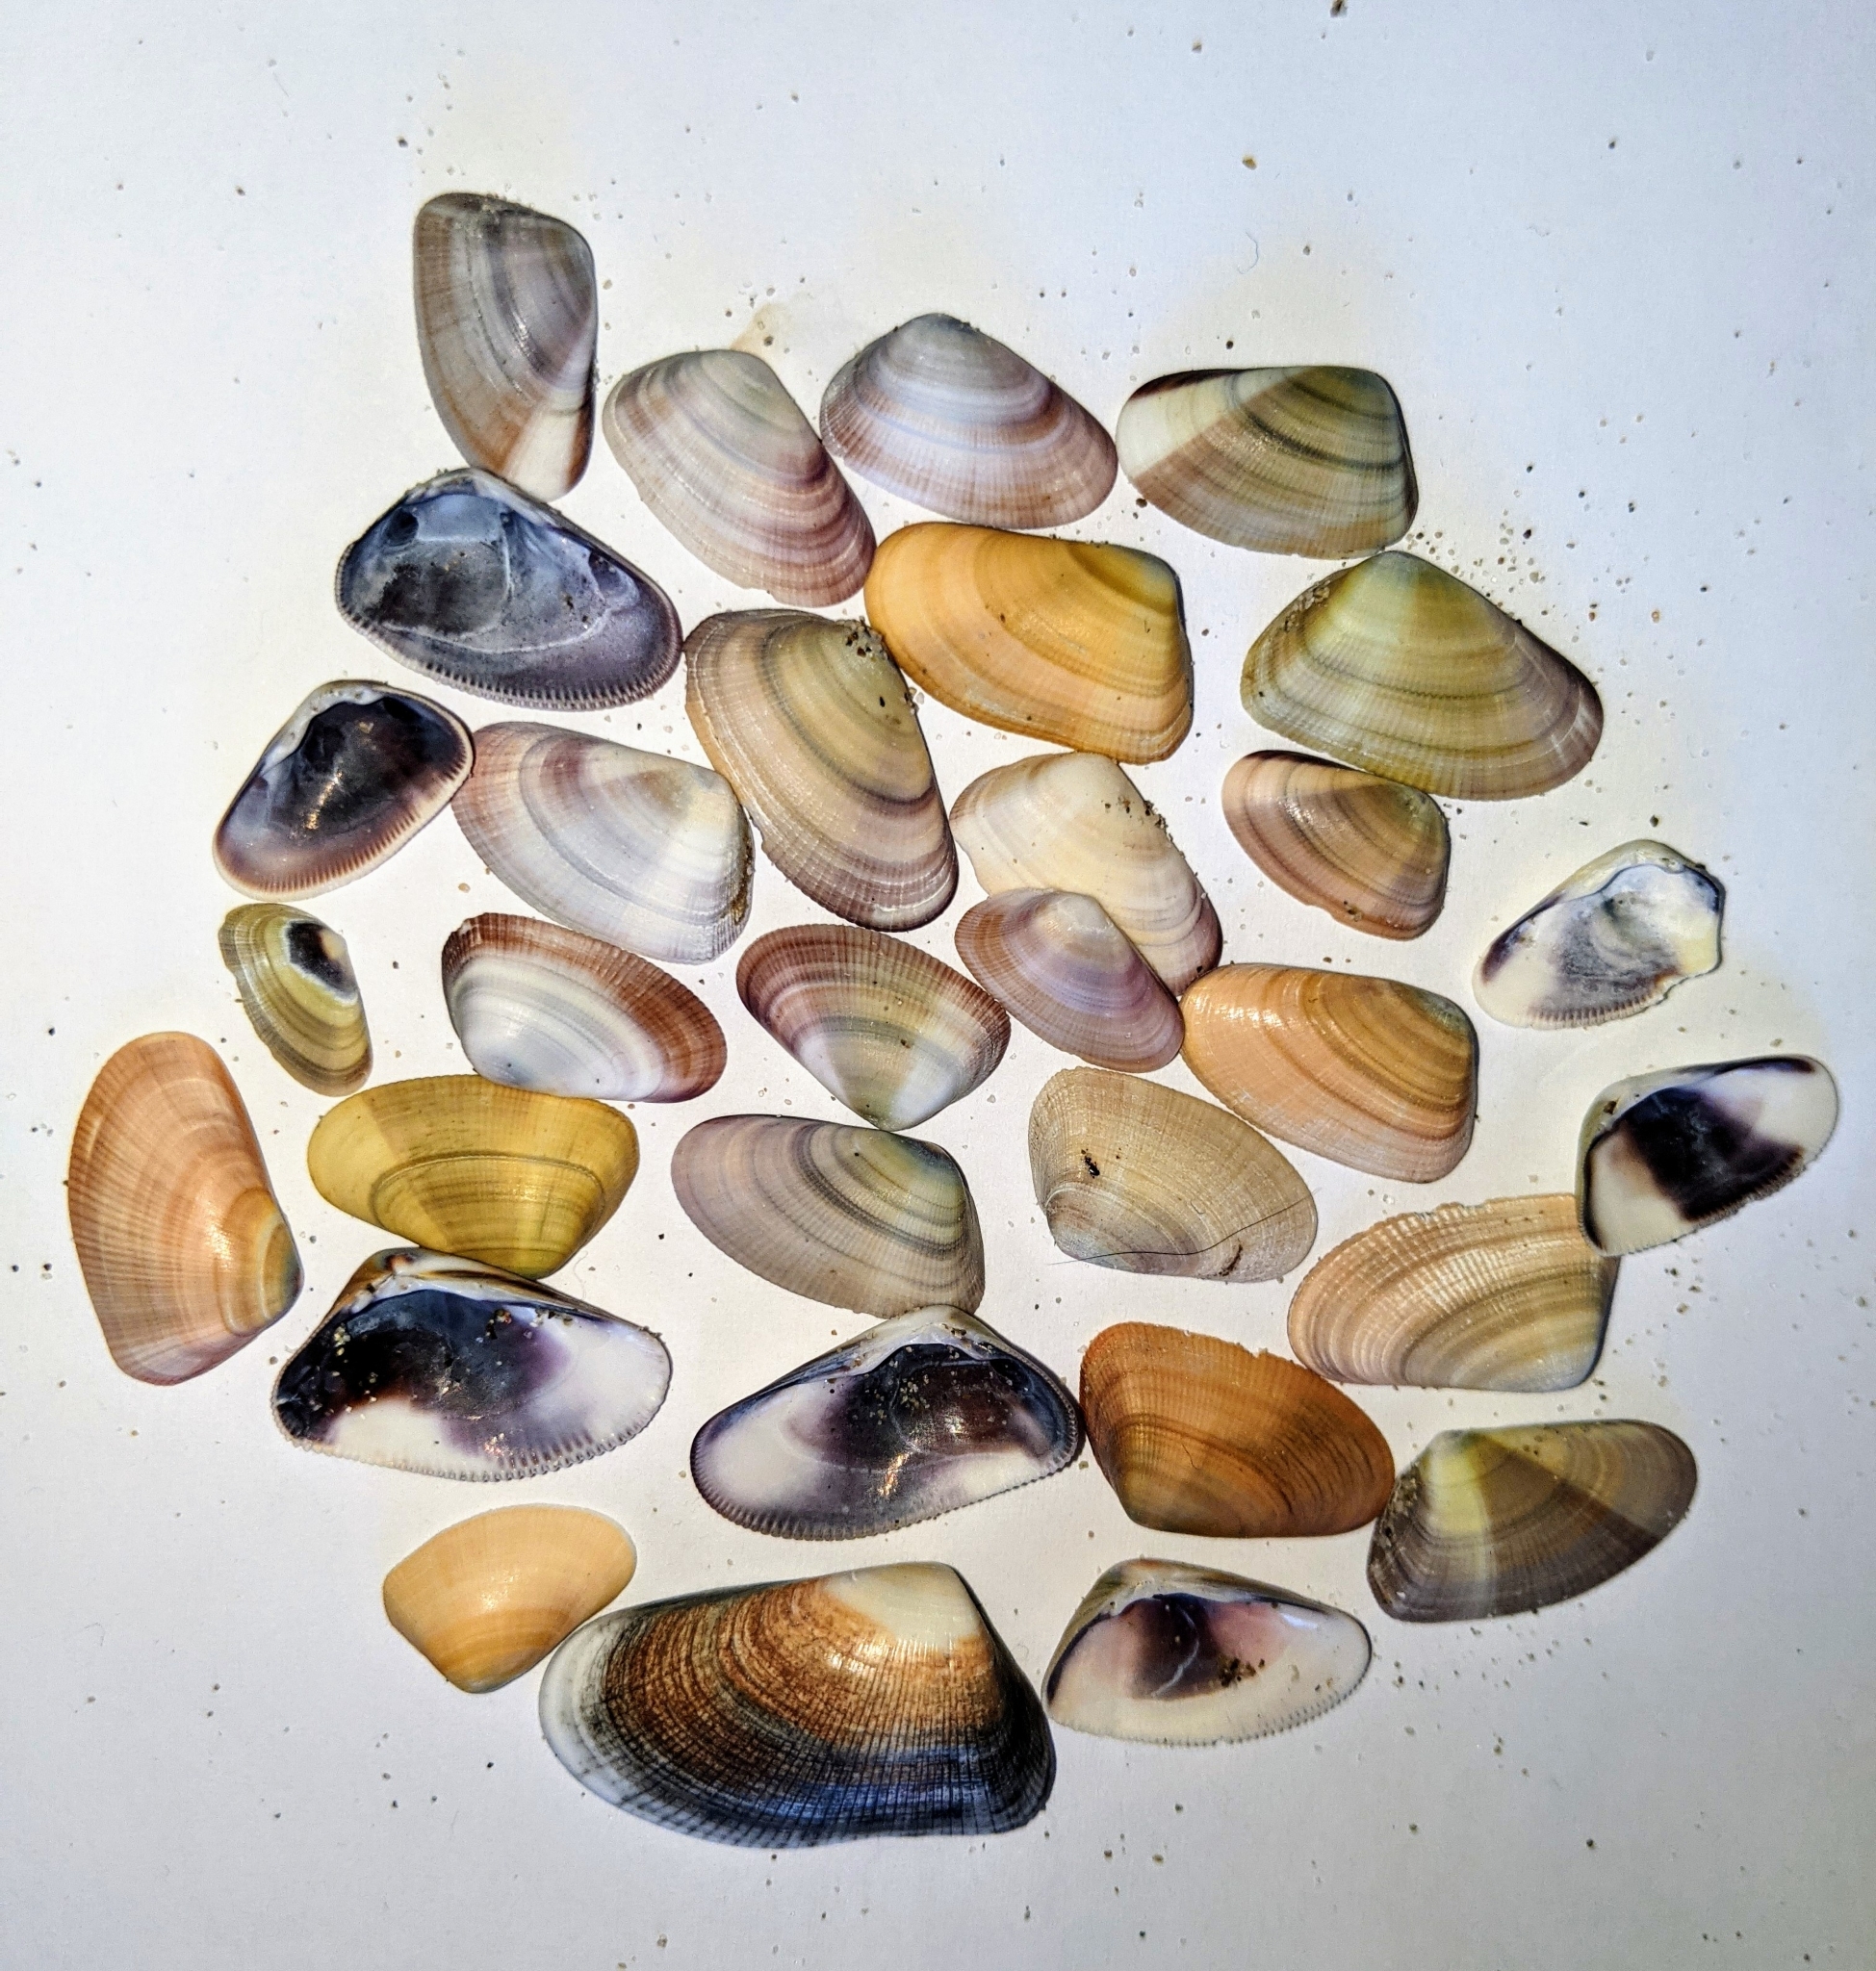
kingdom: Animalia
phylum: Mollusca
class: Bivalvia
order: Cardiida
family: Donacidae
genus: Donax
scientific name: Donax gouldii
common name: Gould beanclam
